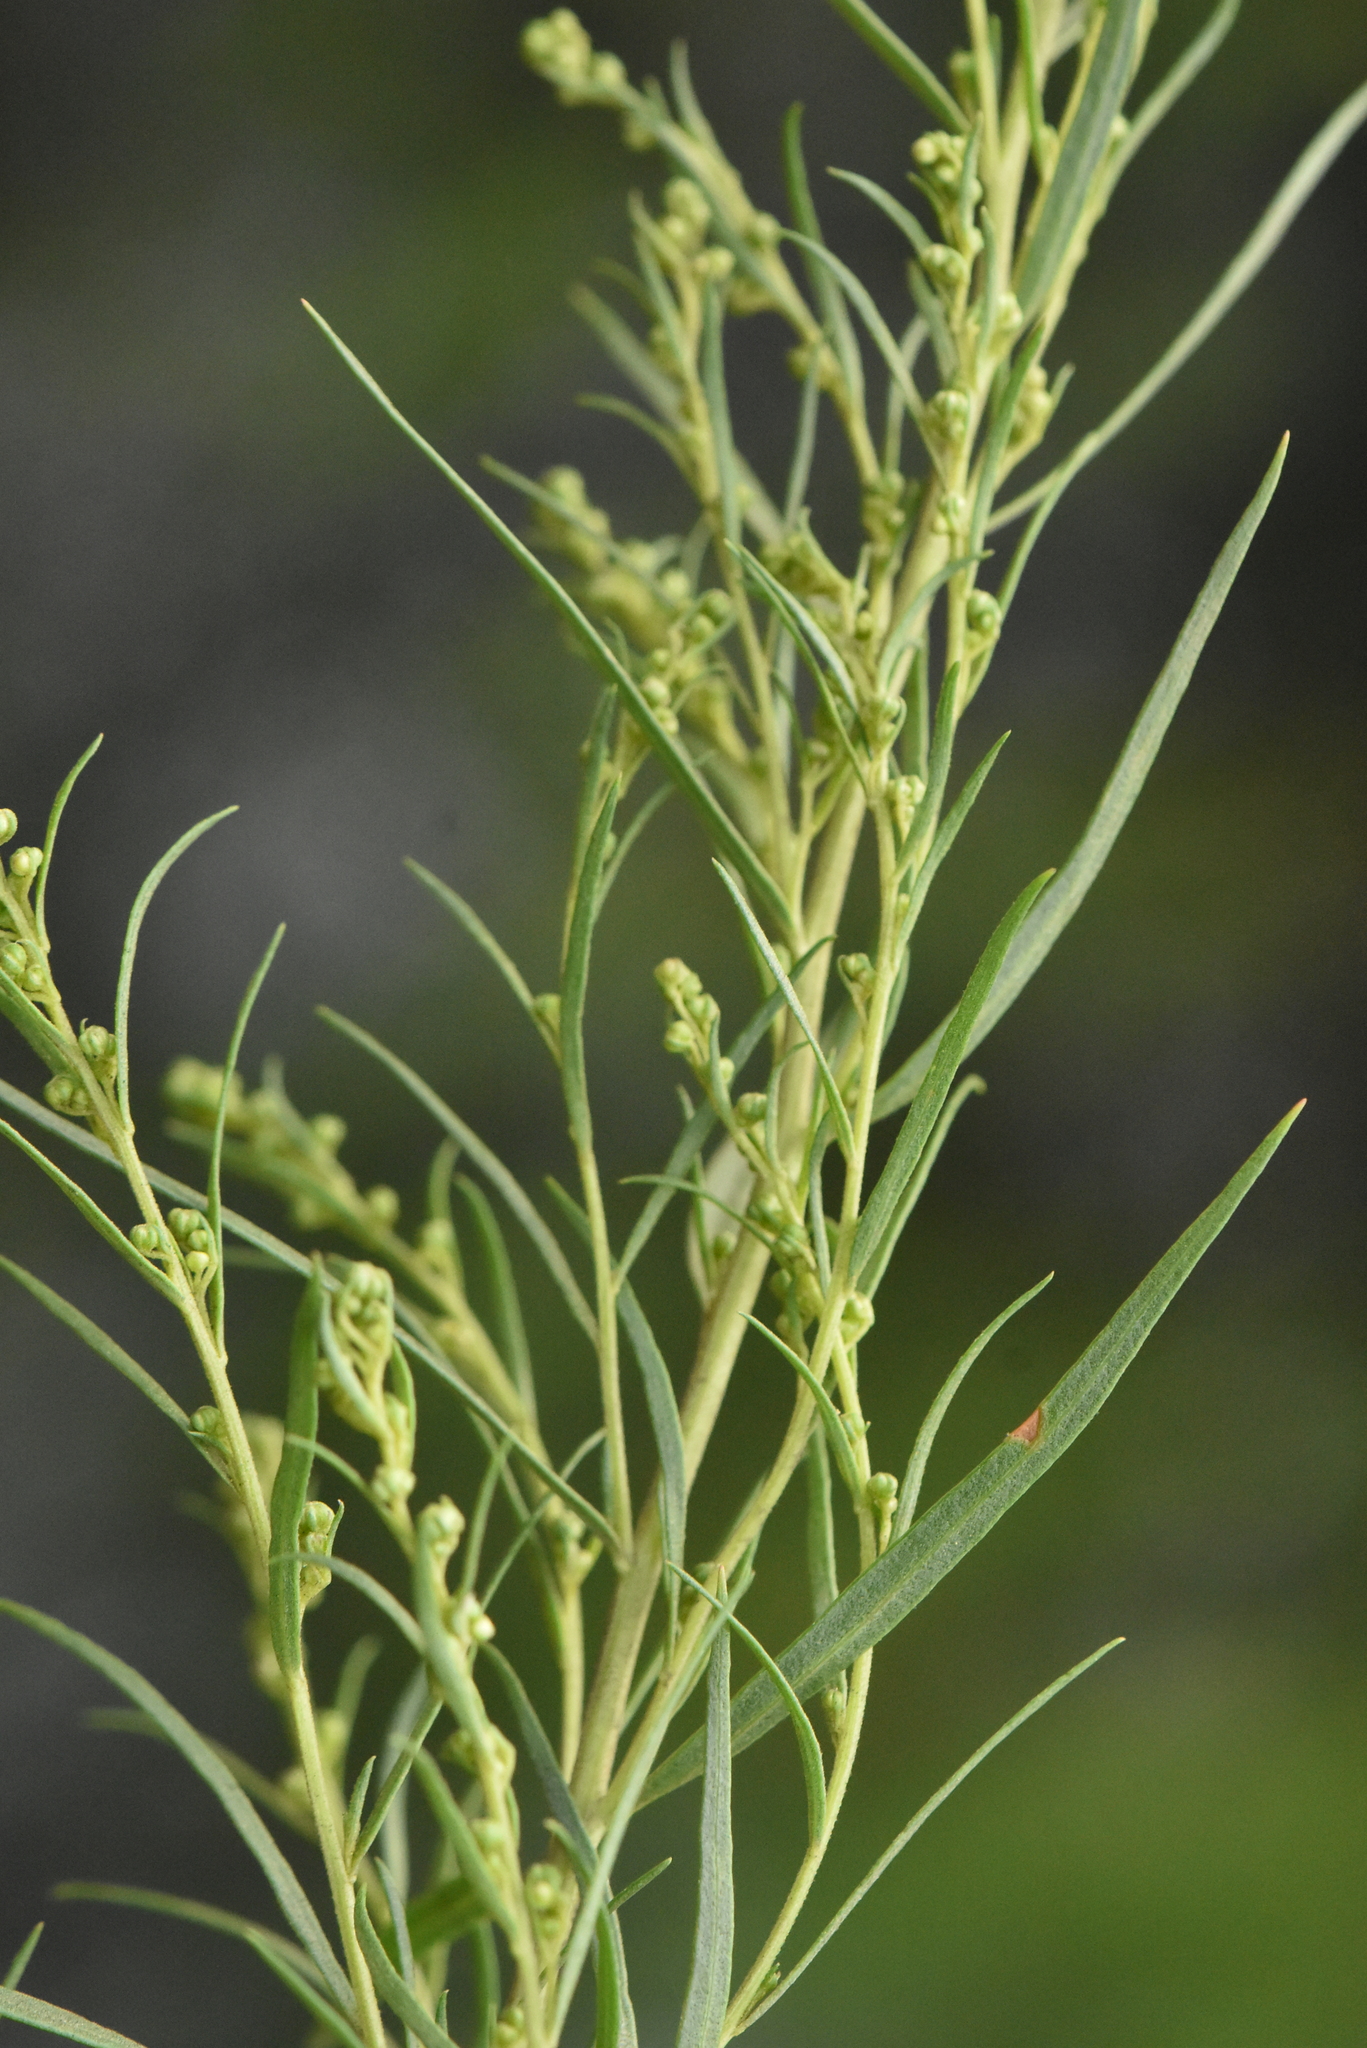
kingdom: Plantae
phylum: Tracheophyta
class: Magnoliopsida
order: Asterales
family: Asteraceae
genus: Artemisia
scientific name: Artemisia dracunculus
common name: Tarragon
